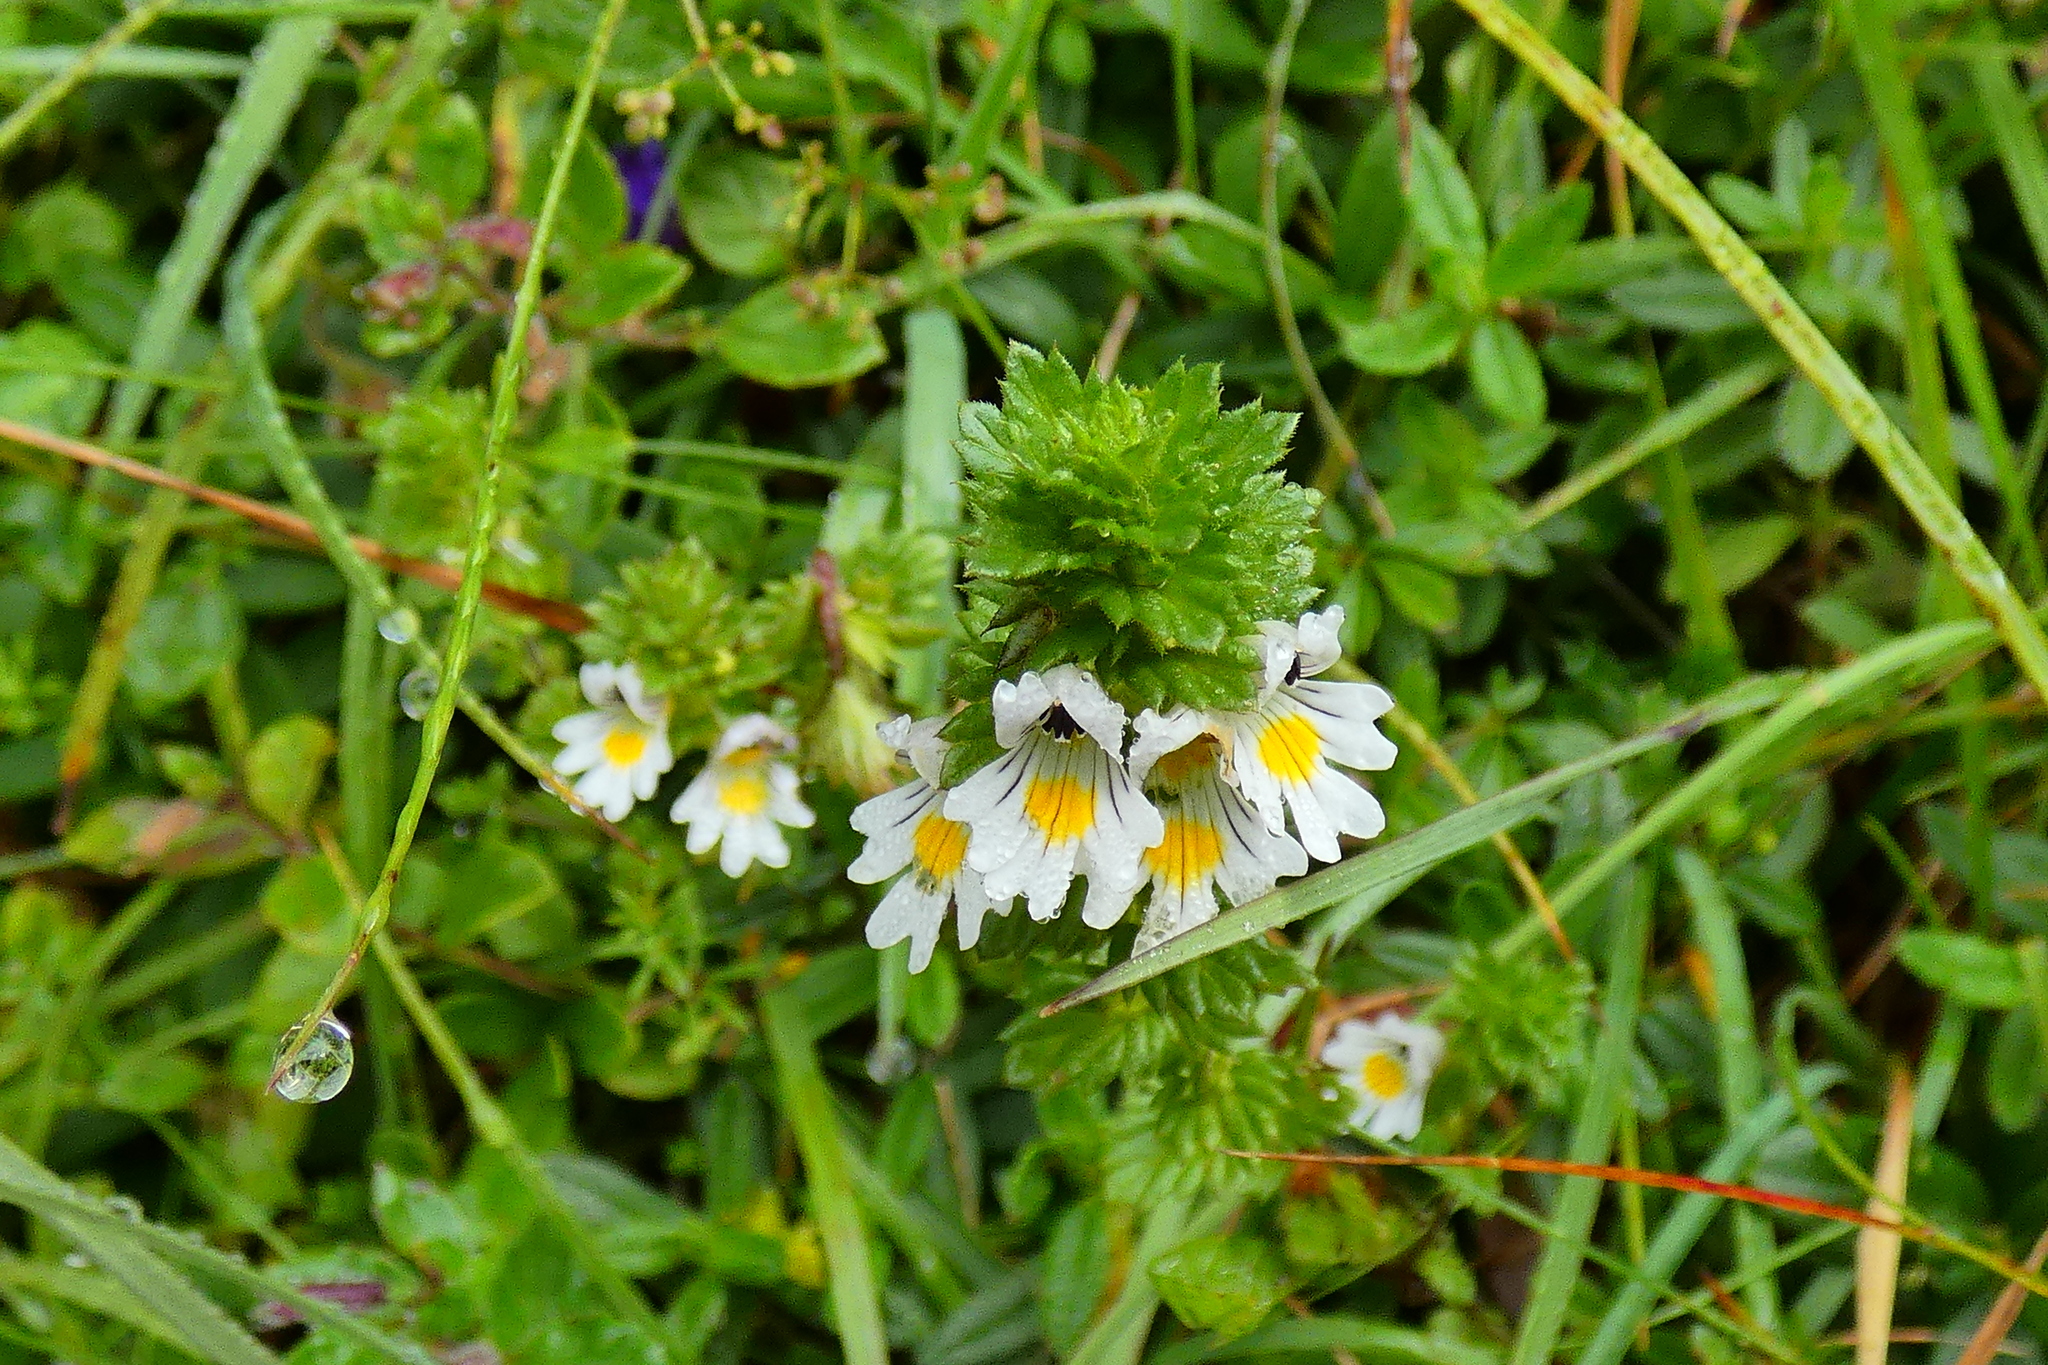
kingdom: Plantae
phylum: Tracheophyta
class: Magnoliopsida
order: Lamiales
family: Orobanchaceae
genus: Euphrasia
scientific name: Euphrasia officinalis
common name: Eyebright
